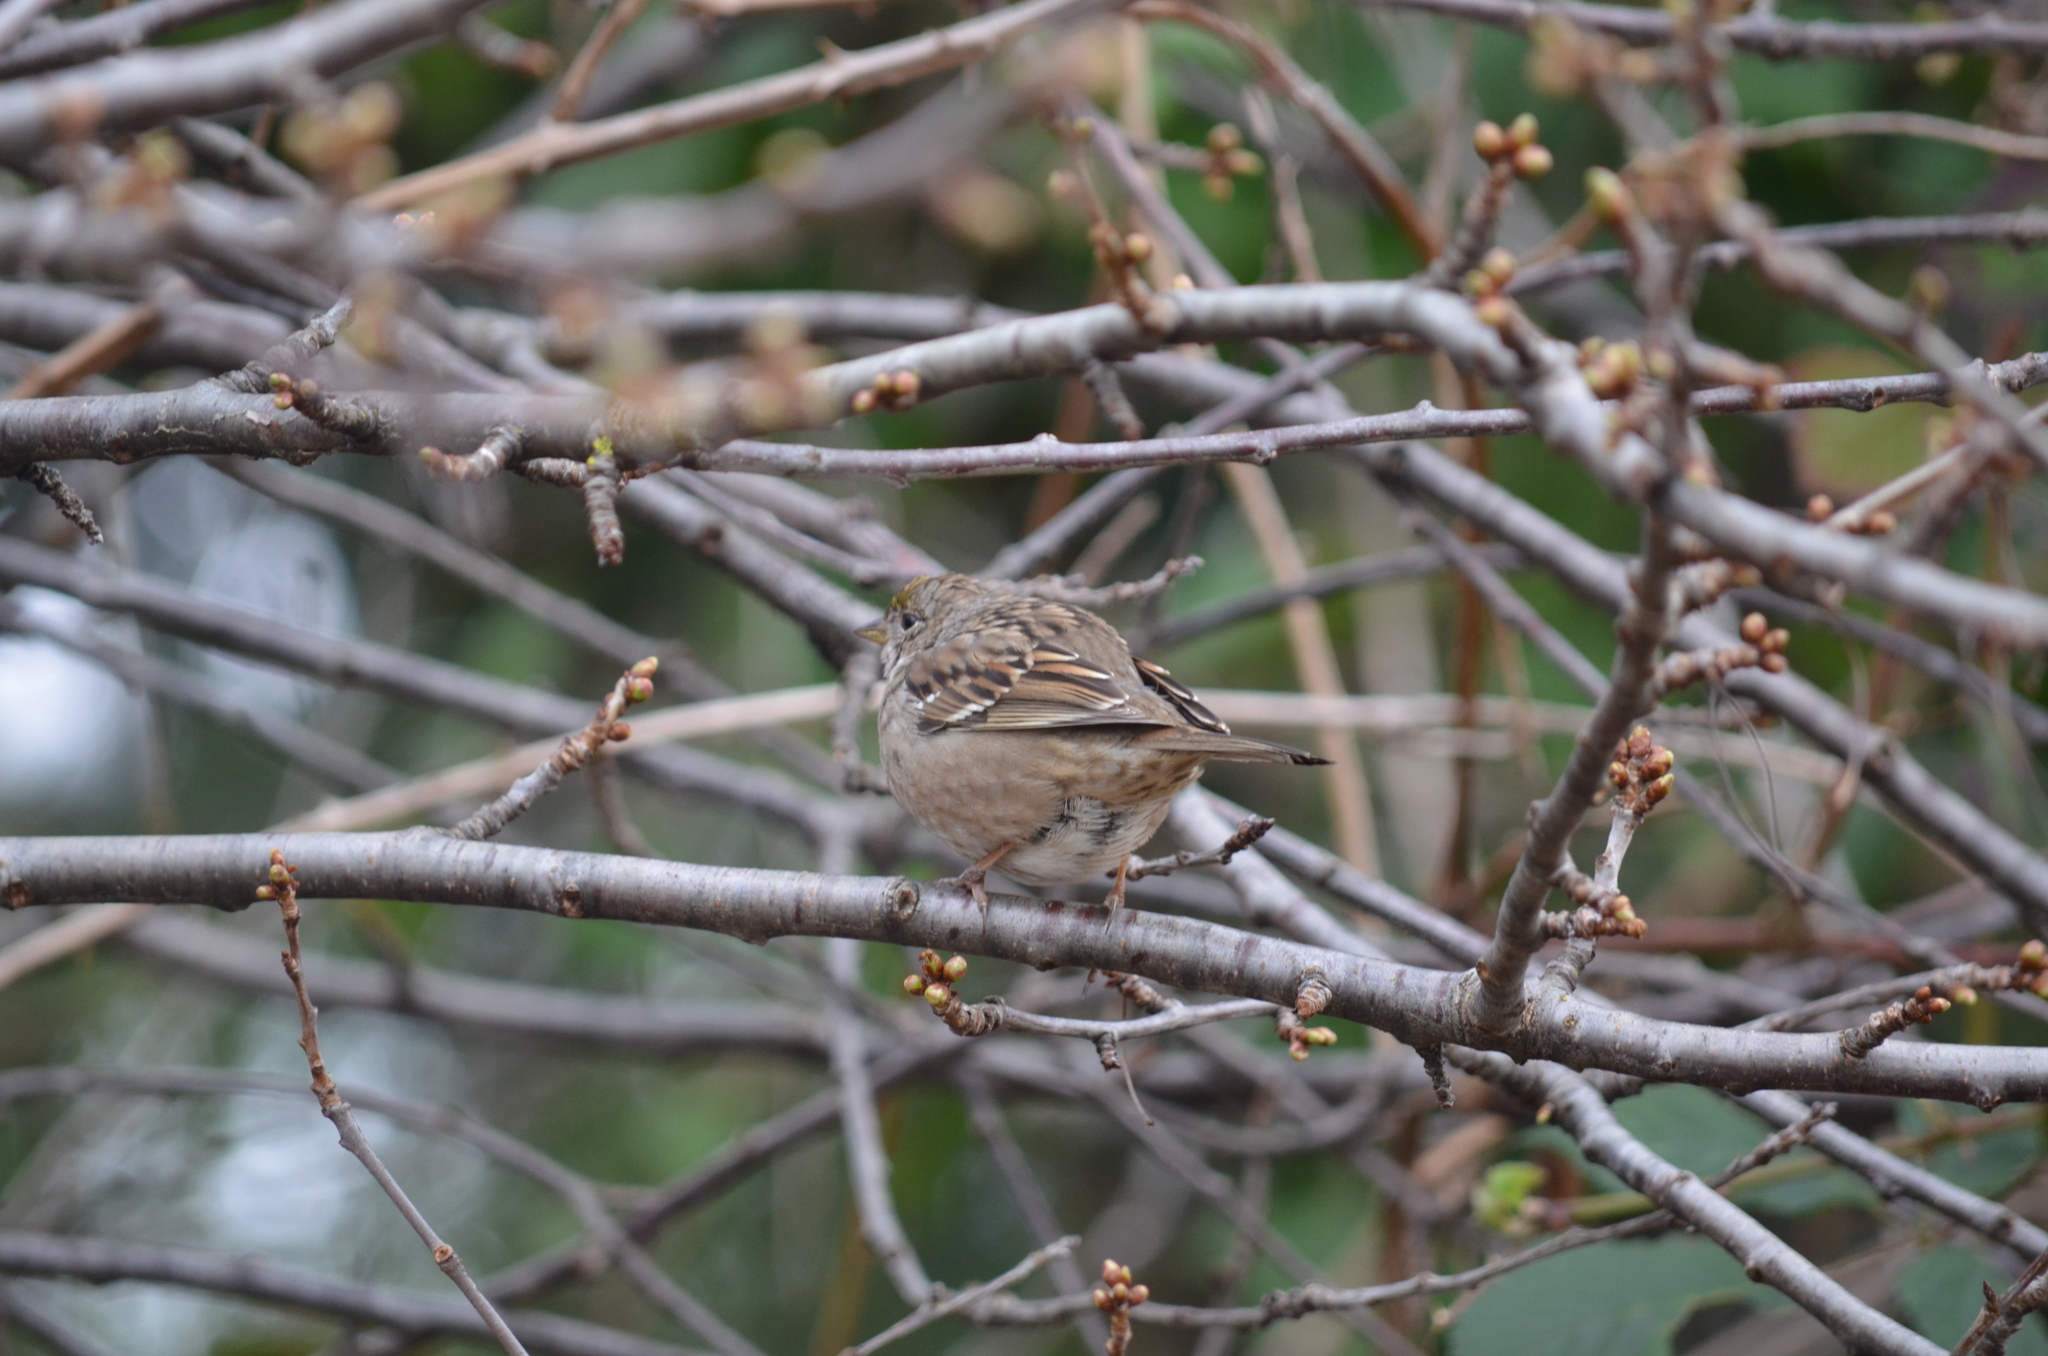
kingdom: Animalia
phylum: Chordata
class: Aves
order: Passeriformes
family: Passerellidae
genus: Zonotrichia
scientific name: Zonotrichia atricapilla
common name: Golden-crowned sparrow
